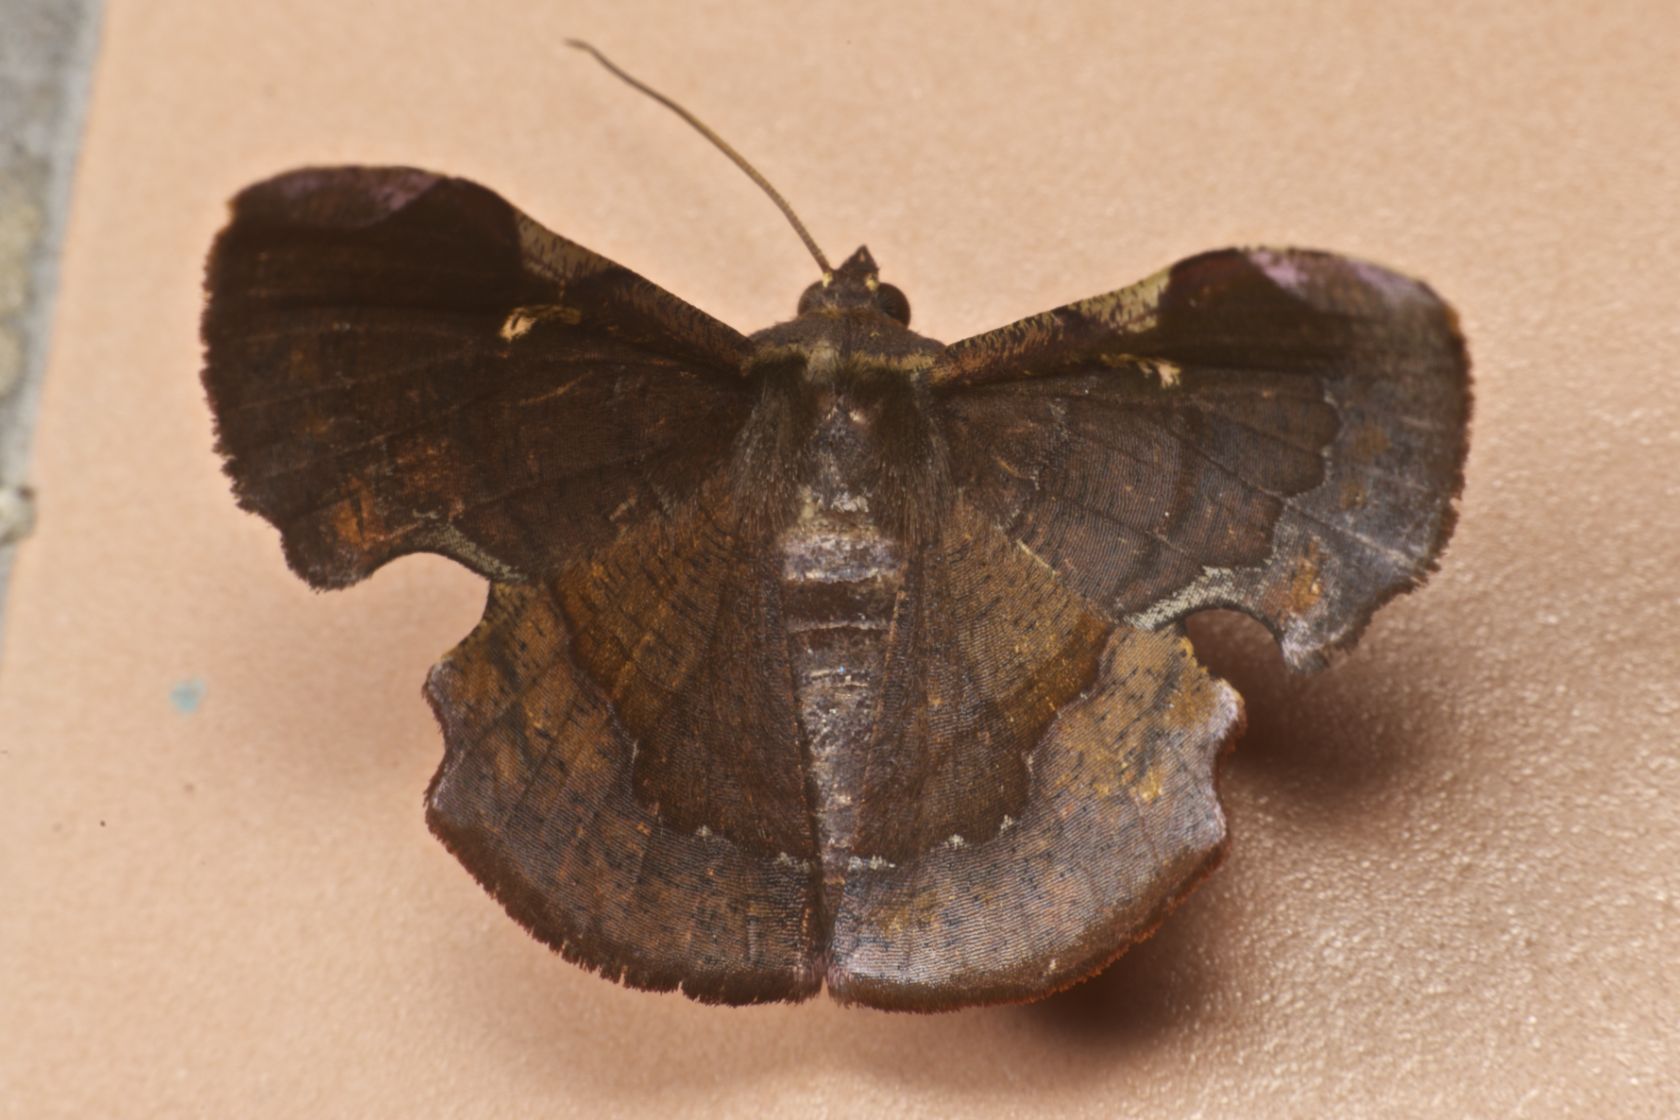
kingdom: Animalia
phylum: Arthropoda
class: Insecta
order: Lepidoptera
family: Geometridae
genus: Fascellina
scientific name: Fascellina chromataria
